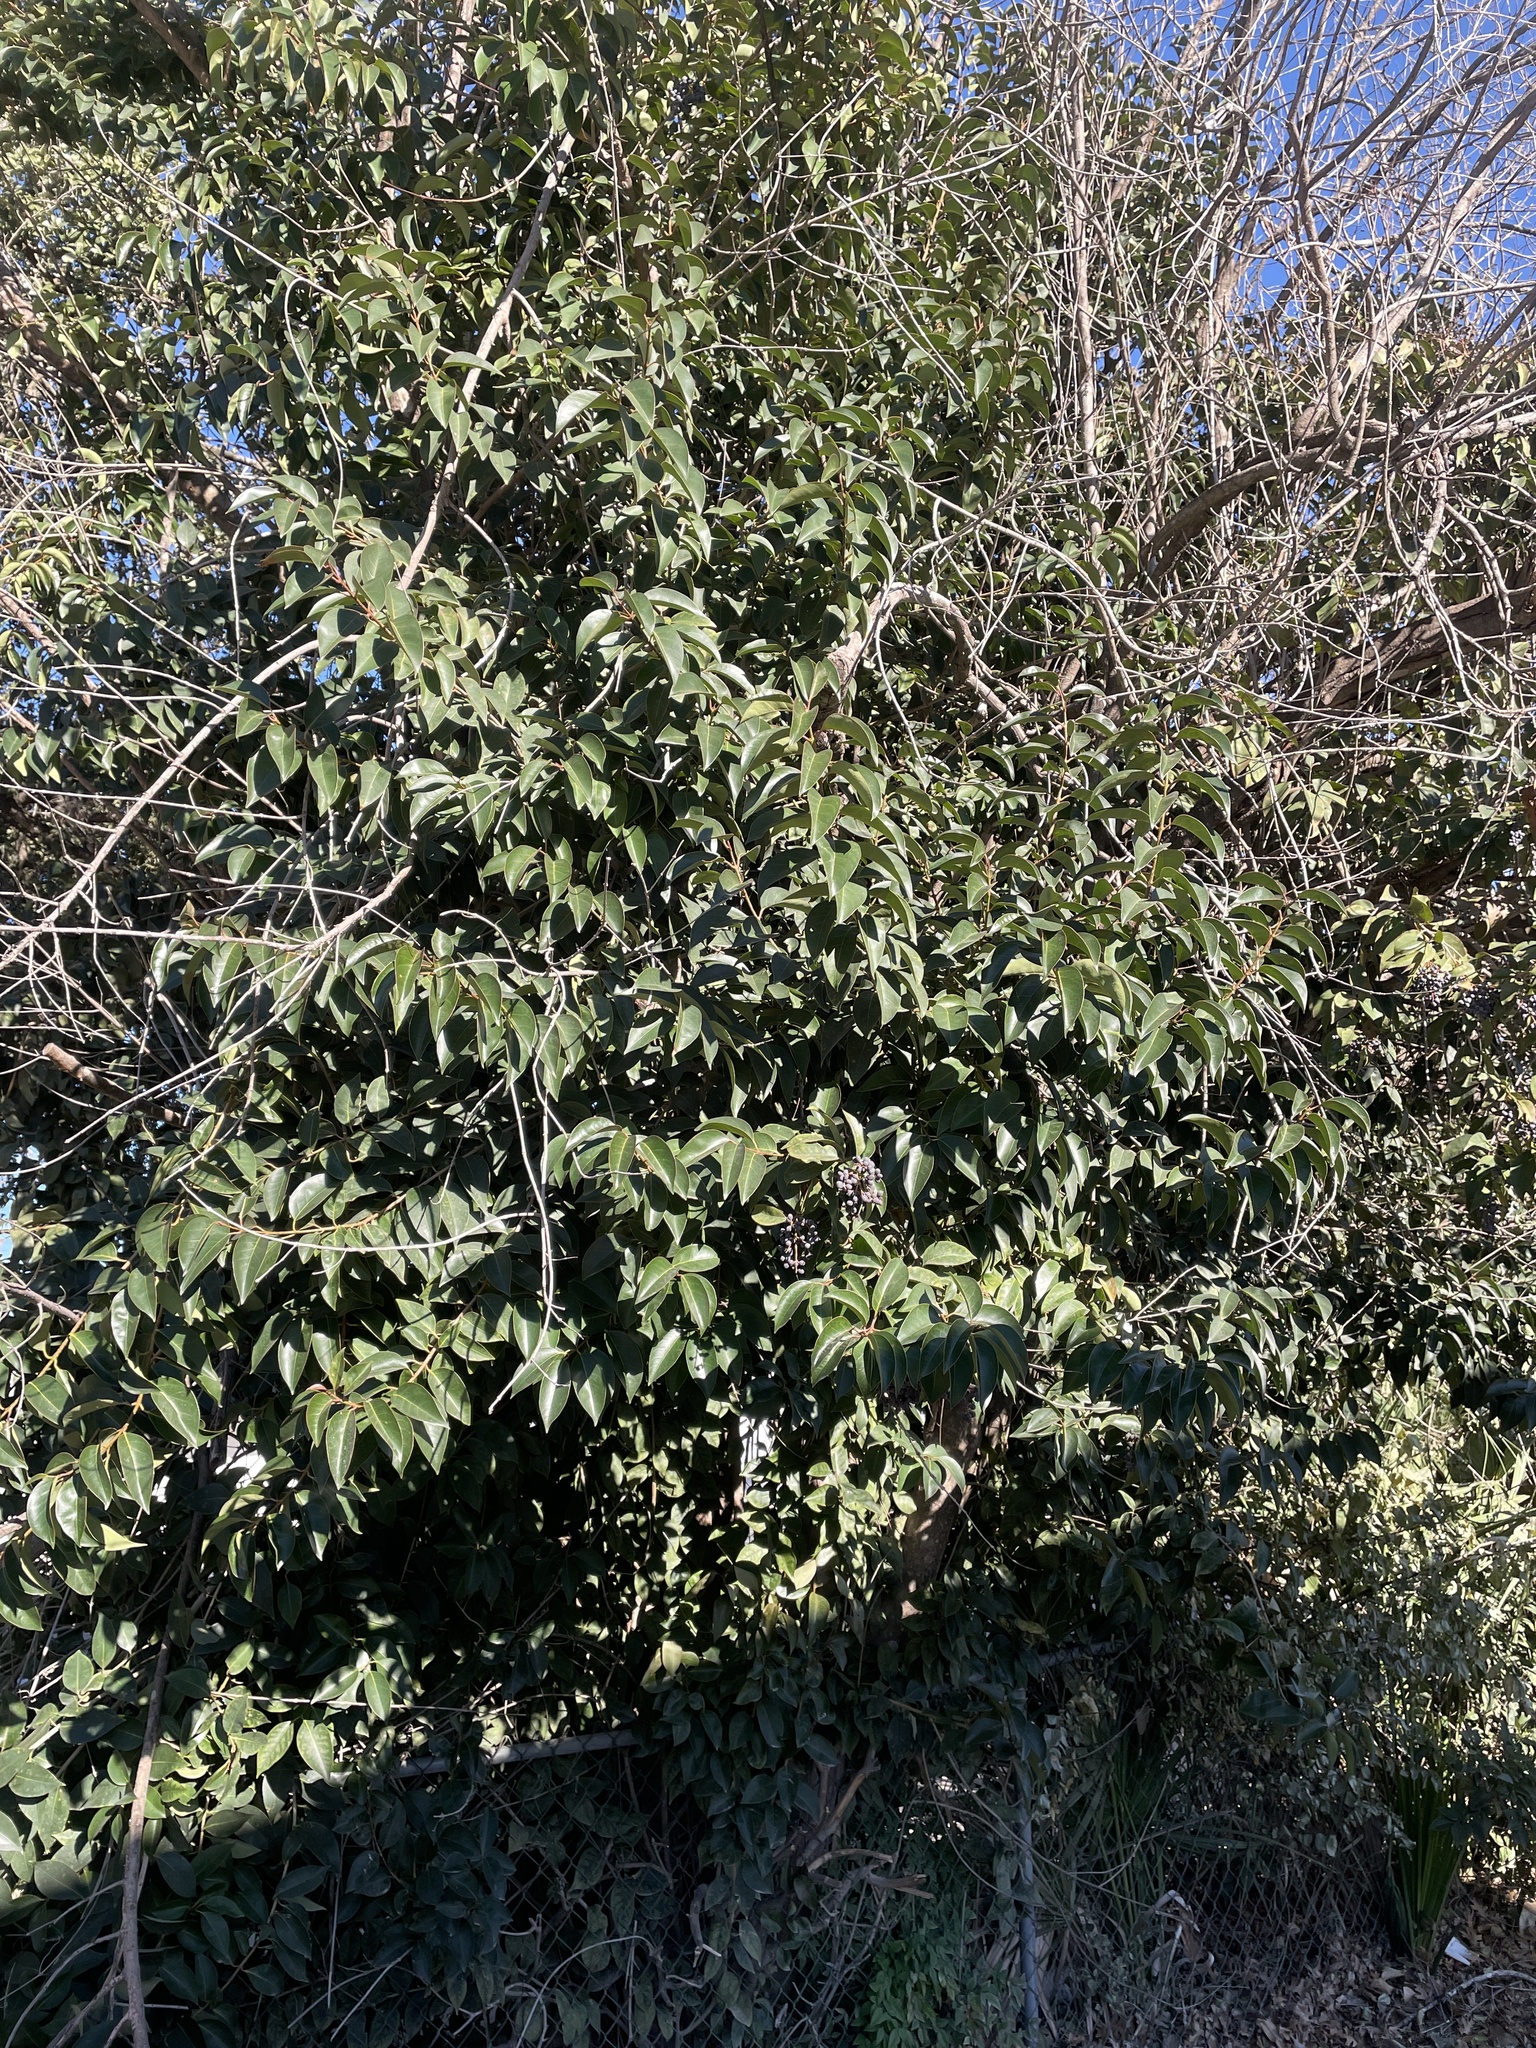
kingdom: Plantae
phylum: Tracheophyta
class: Magnoliopsida
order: Lamiales
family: Oleaceae
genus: Ligustrum
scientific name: Ligustrum lucidum
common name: Glossy privet
